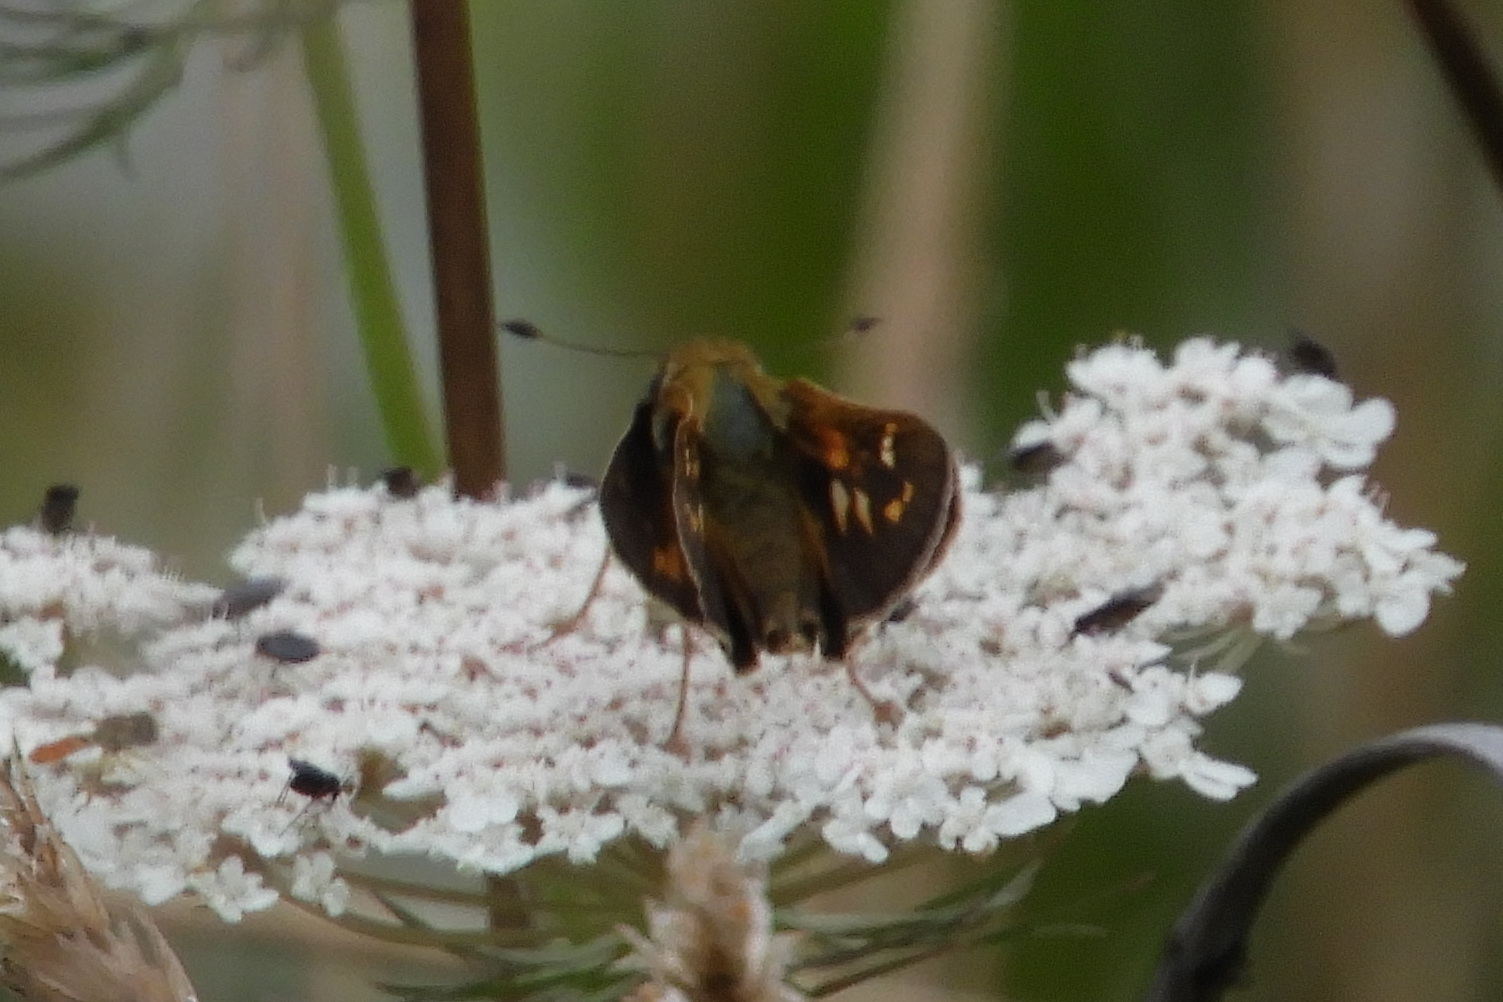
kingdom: Animalia
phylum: Arthropoda
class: Insecta
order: Lepidoptera
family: Hesperiidae
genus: Atalopedes
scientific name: Atalopedes
